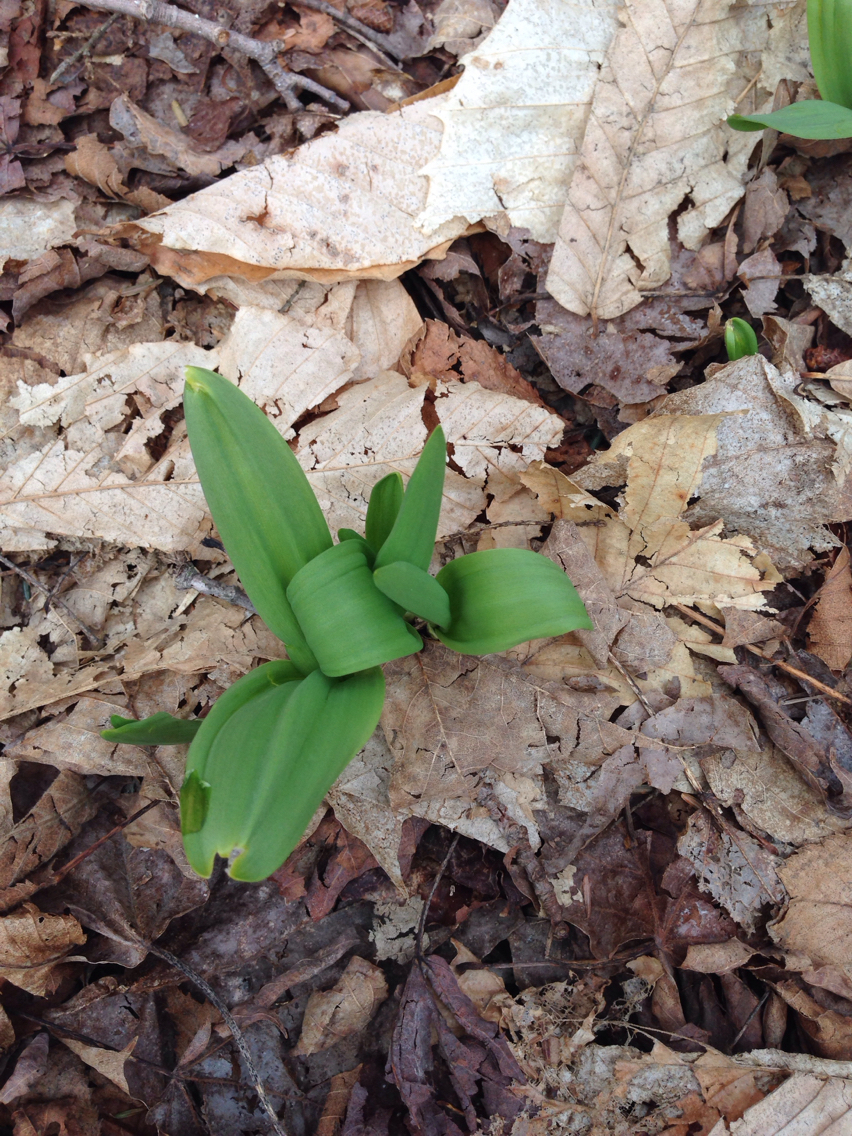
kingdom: Plantae
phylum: Tracheophyta
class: Liliopsida
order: Asparagales
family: Amaryllidaceae
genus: Allium
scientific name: Allium tricoccum
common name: Ramp
